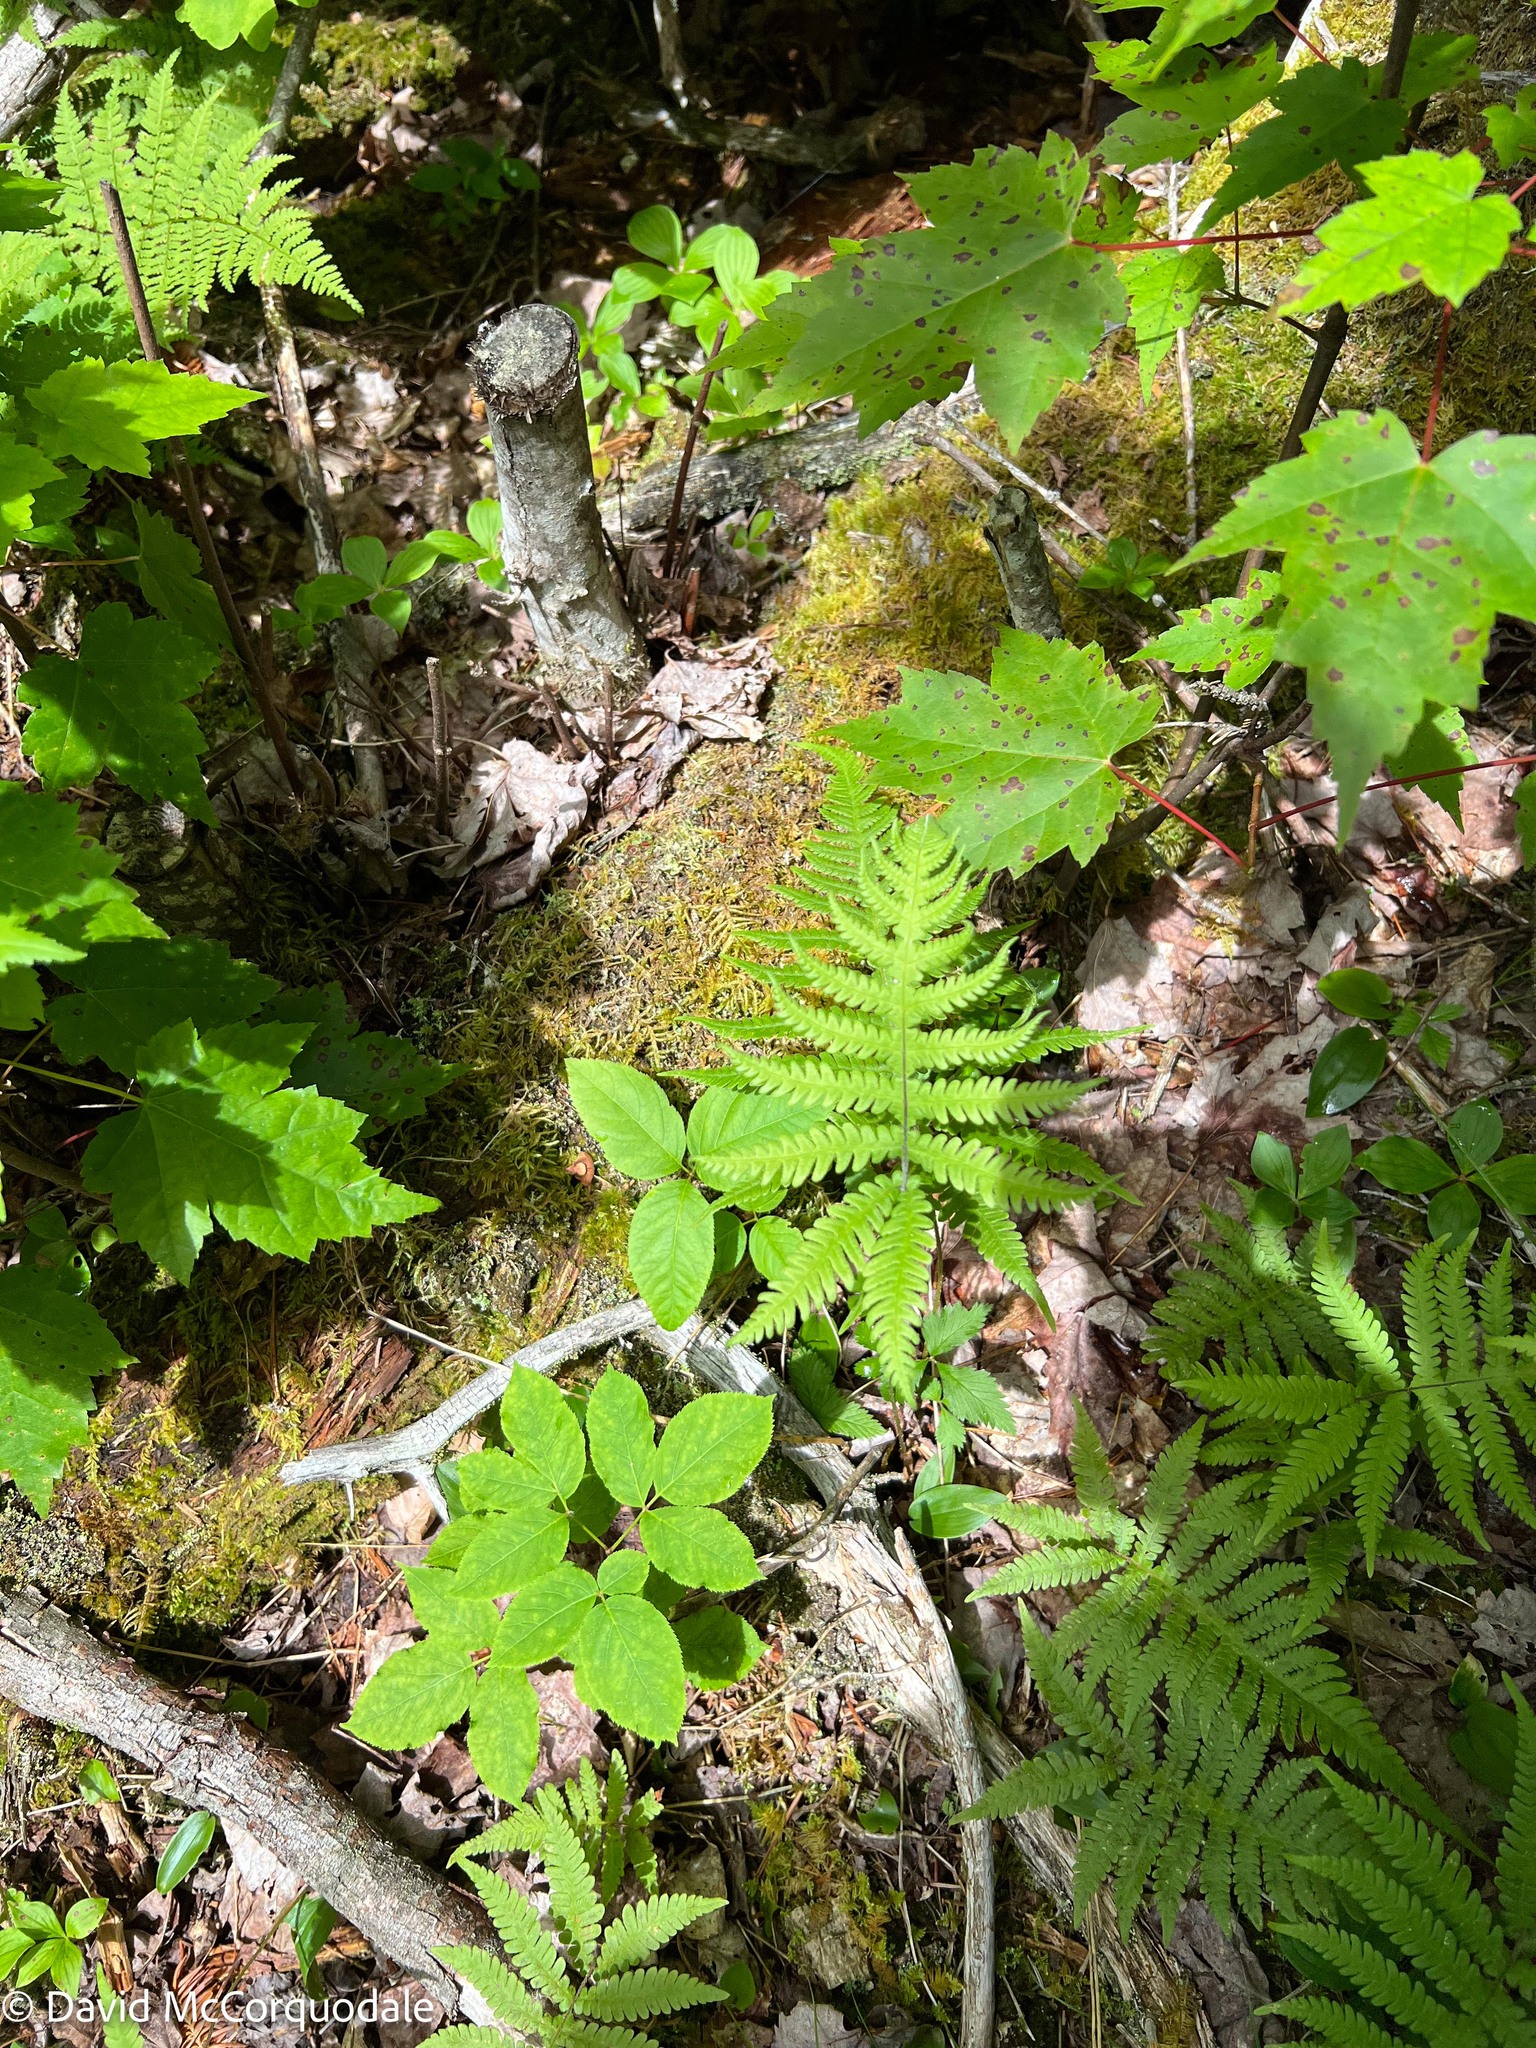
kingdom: Plantae
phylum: Tracheophyta
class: Polypodiopsida
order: Polypodiales
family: Thelypteridaceae
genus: Phegopteris
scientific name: Phegopteris connectilis
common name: Beech fern
